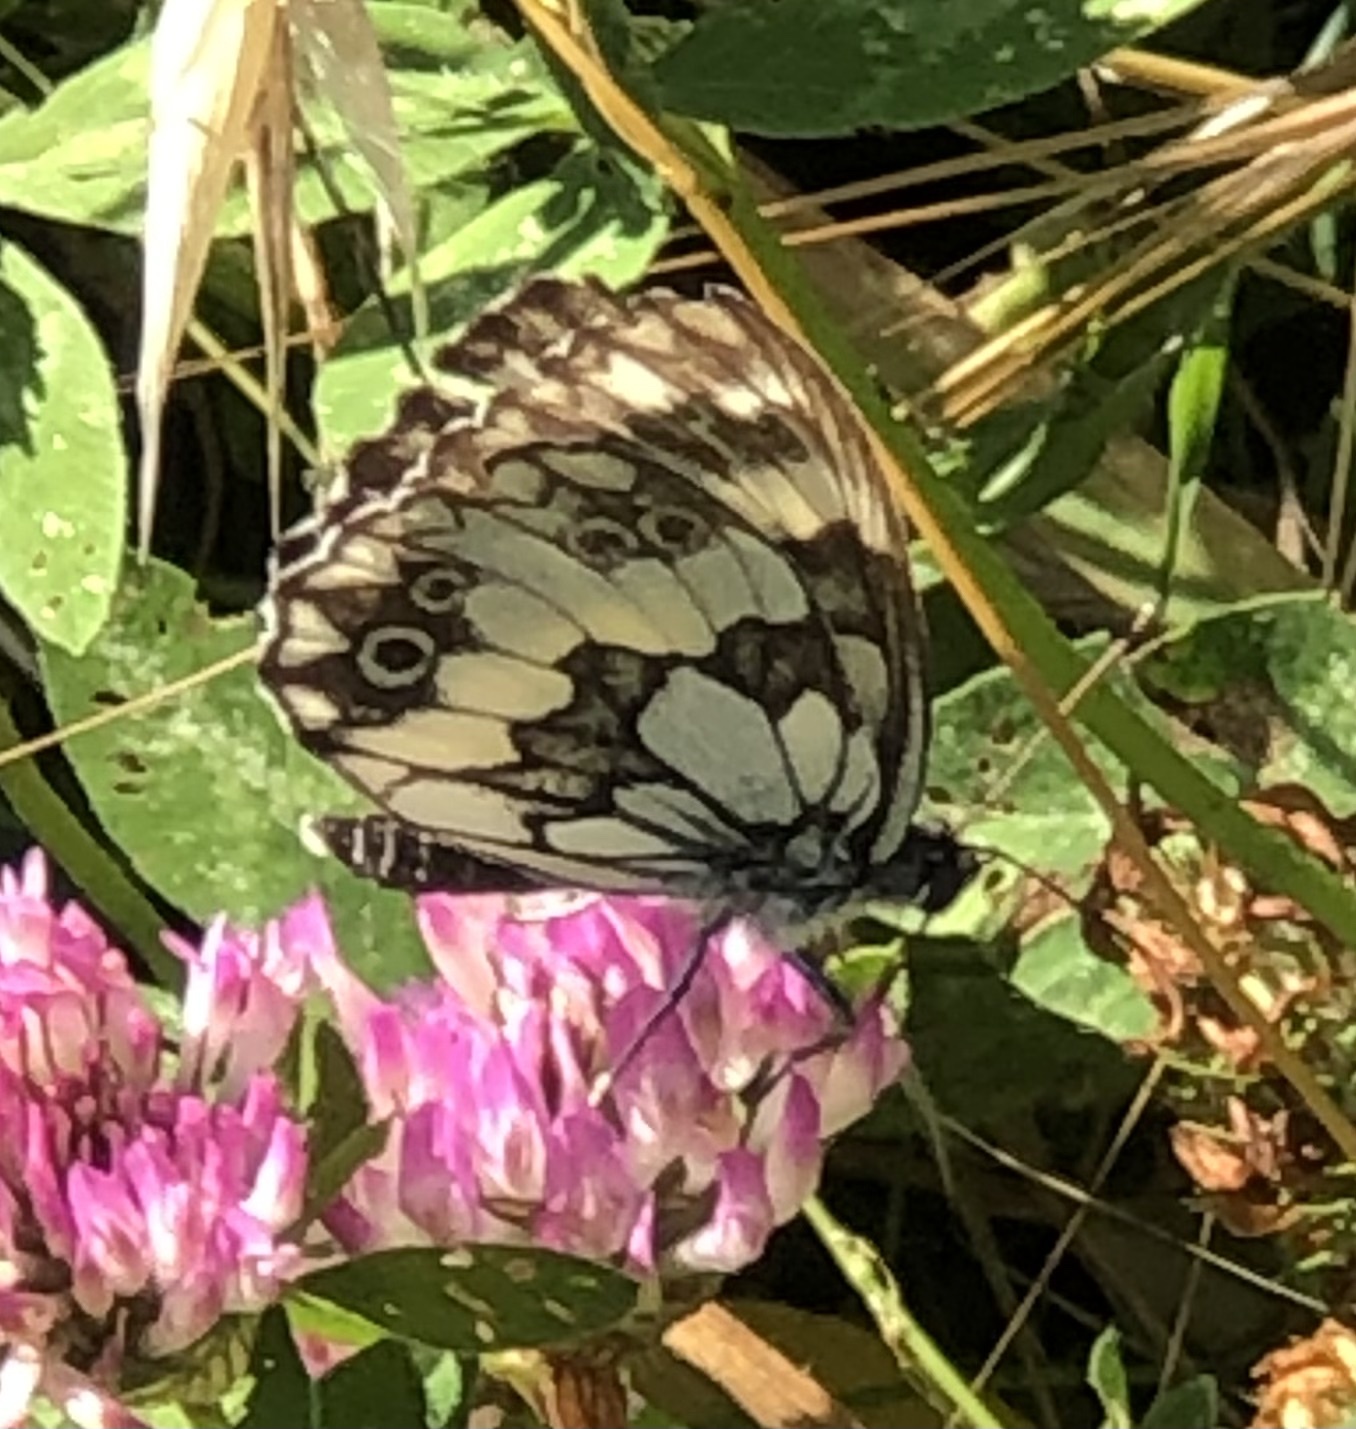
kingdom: Animalia
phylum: Arthropoda
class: Insecta
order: Lepidoptera
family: Nymphalidae
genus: Melanargia
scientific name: Melanargia galathea
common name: Marbled white
